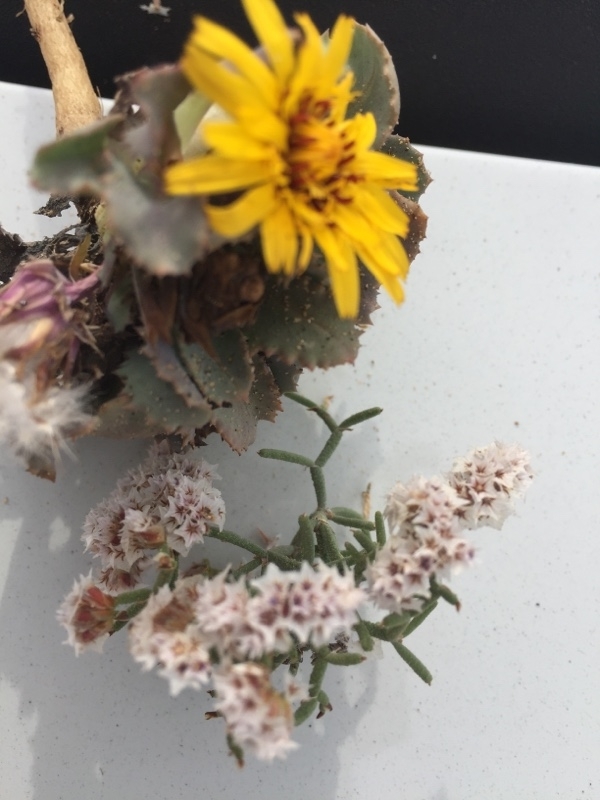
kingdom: Plantae
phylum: Tracheophyta
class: Magnoliopsida
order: Asterales
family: Asteraceae
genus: Reichardia
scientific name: Reichardia tingitana
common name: Reichardia
